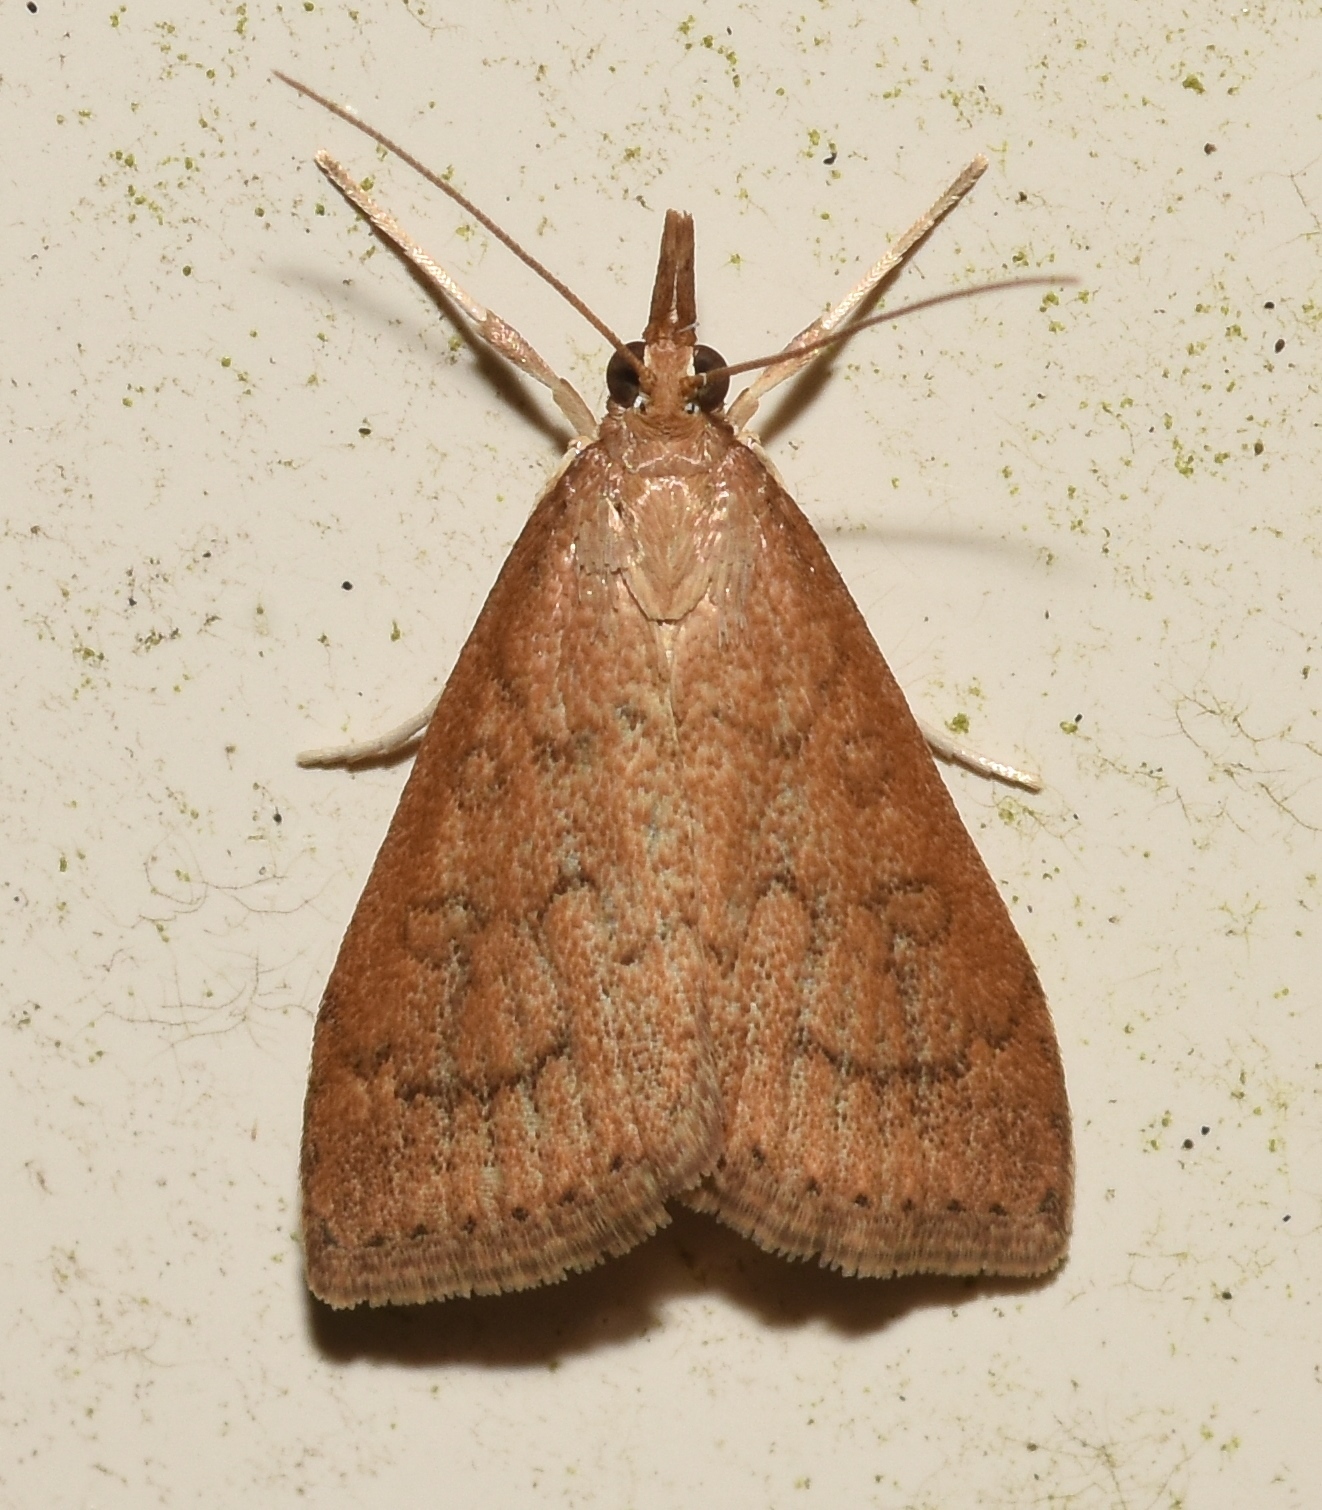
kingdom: Animalia
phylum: Arthropoda
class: Insecta
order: Lepidoptera
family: Crambidae
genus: Udea
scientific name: Udea rubigalis
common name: Celery leaftier moth
